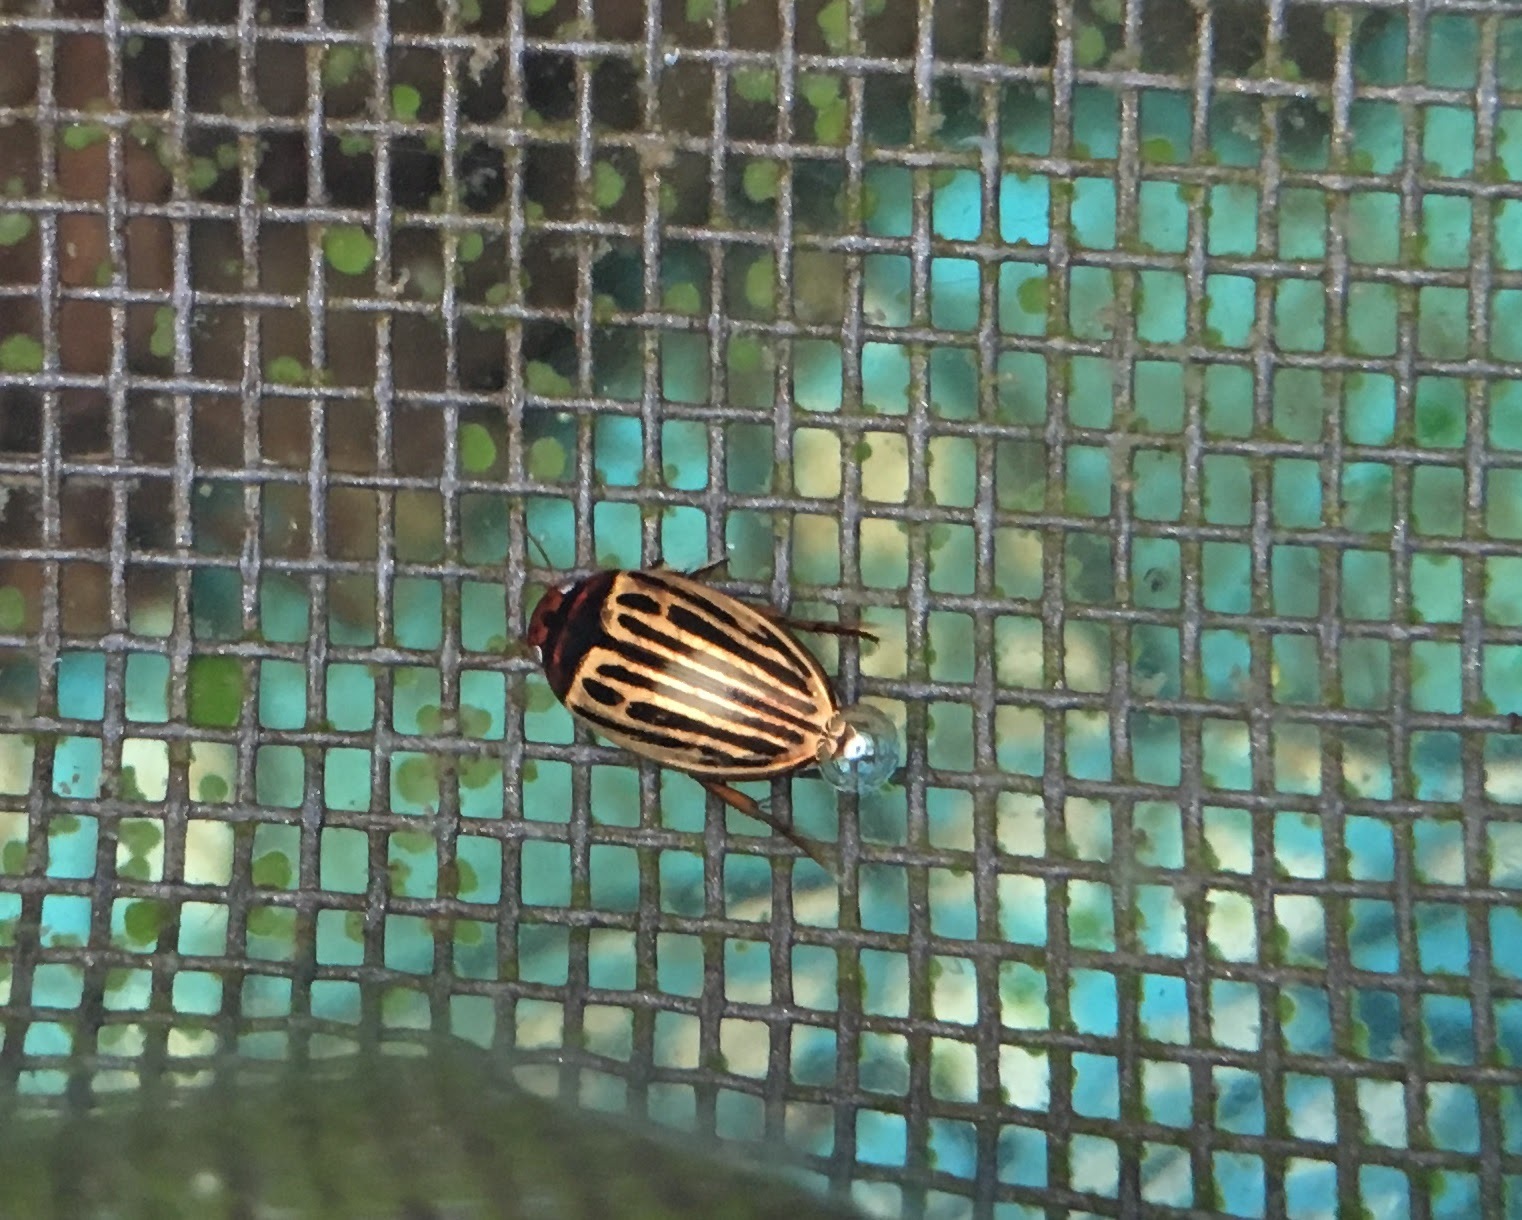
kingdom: Animalia
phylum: Arthropoda
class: Insecta
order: Coleoptera
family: Dytiscidae
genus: Agabus
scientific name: Agabus disintegratus
